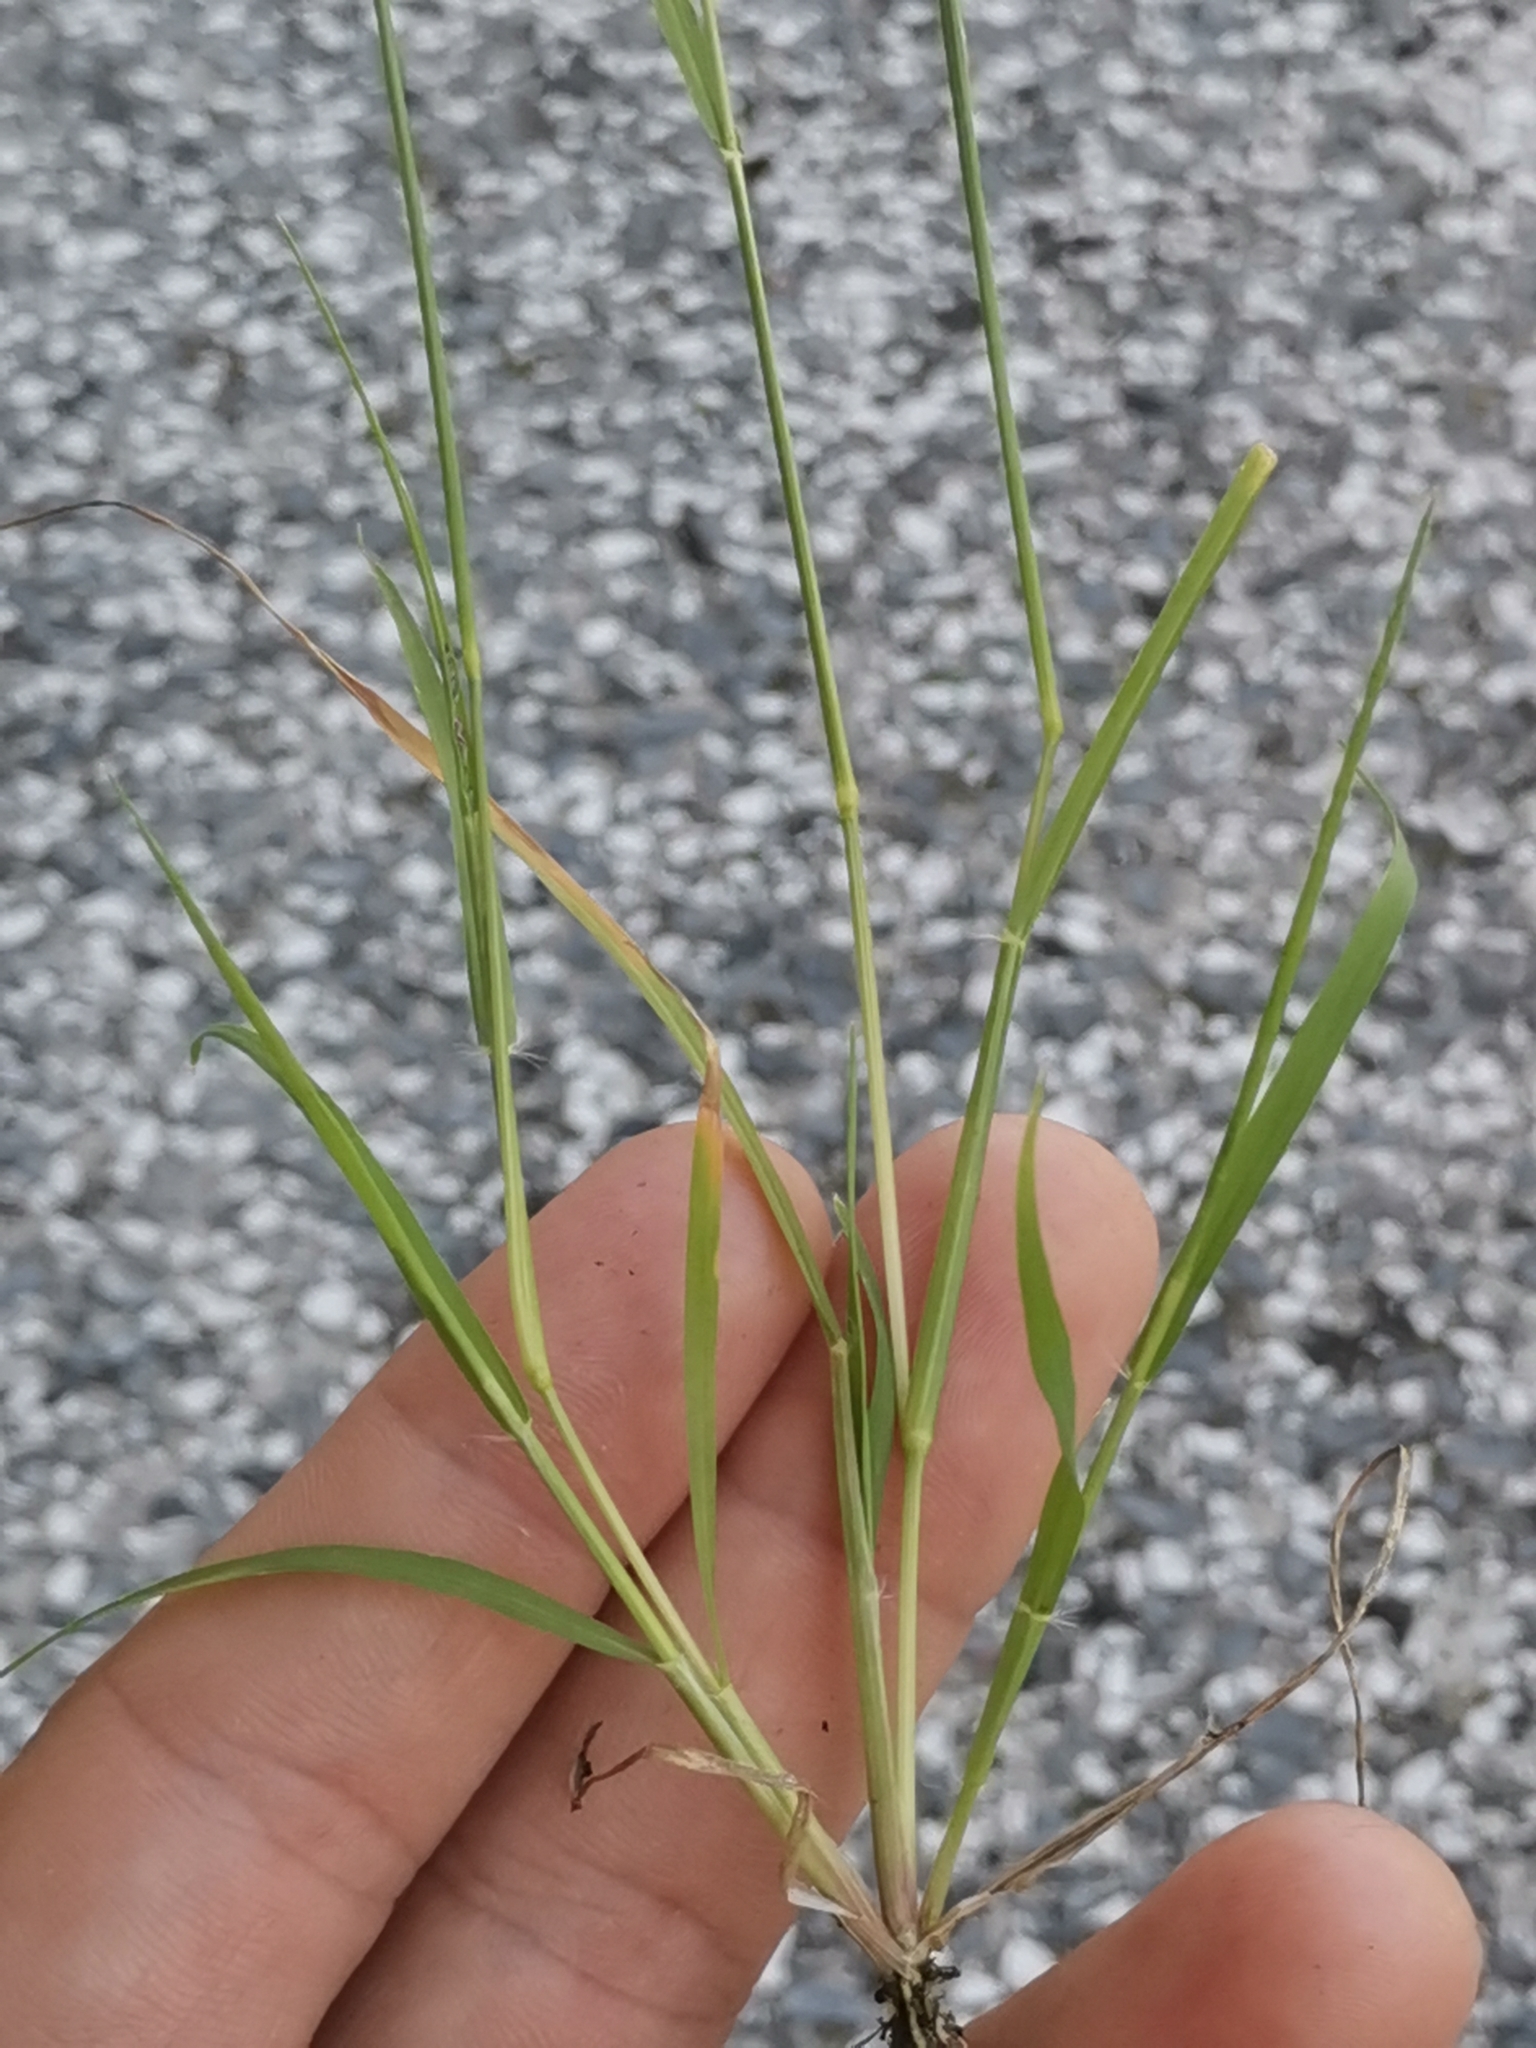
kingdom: Plantae
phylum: Tracheophyta
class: Liliopsida
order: Poales
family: Poaceae
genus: Eragrostis
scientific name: Eragrostis pilosa
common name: Indian lovegrass
